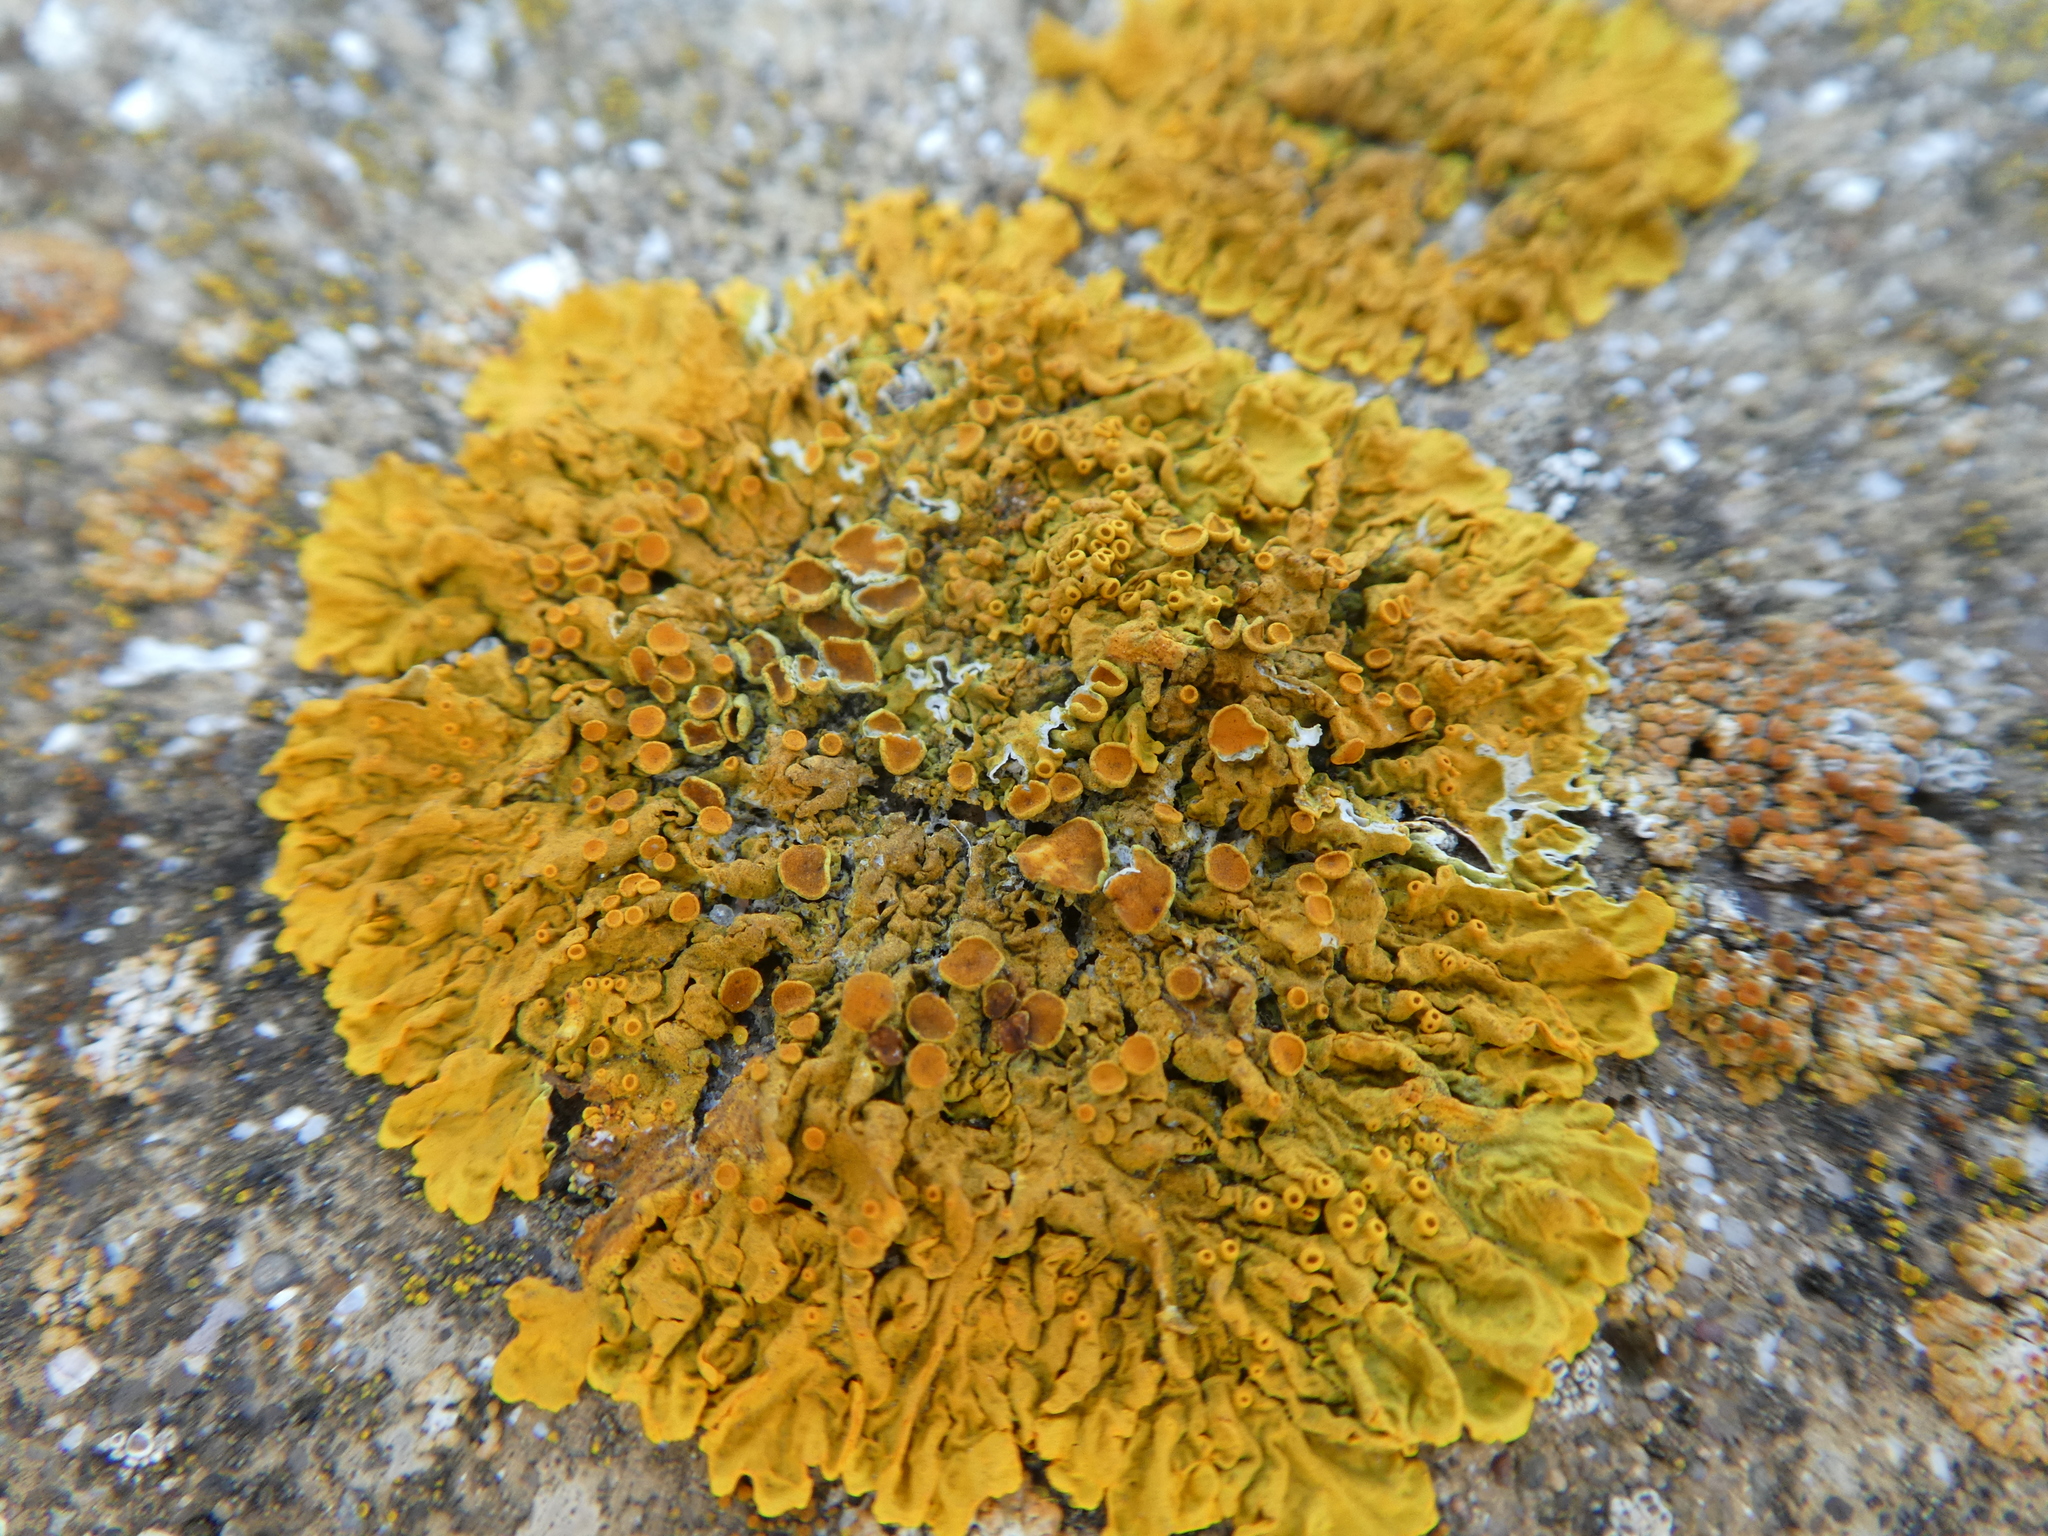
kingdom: Fungi
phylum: Ascomycota
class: Lecanoromycetes
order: Teloschistales
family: Teloschistaceae
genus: Xanthoria
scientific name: Xanthoria parietina
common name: Common orange lichen
